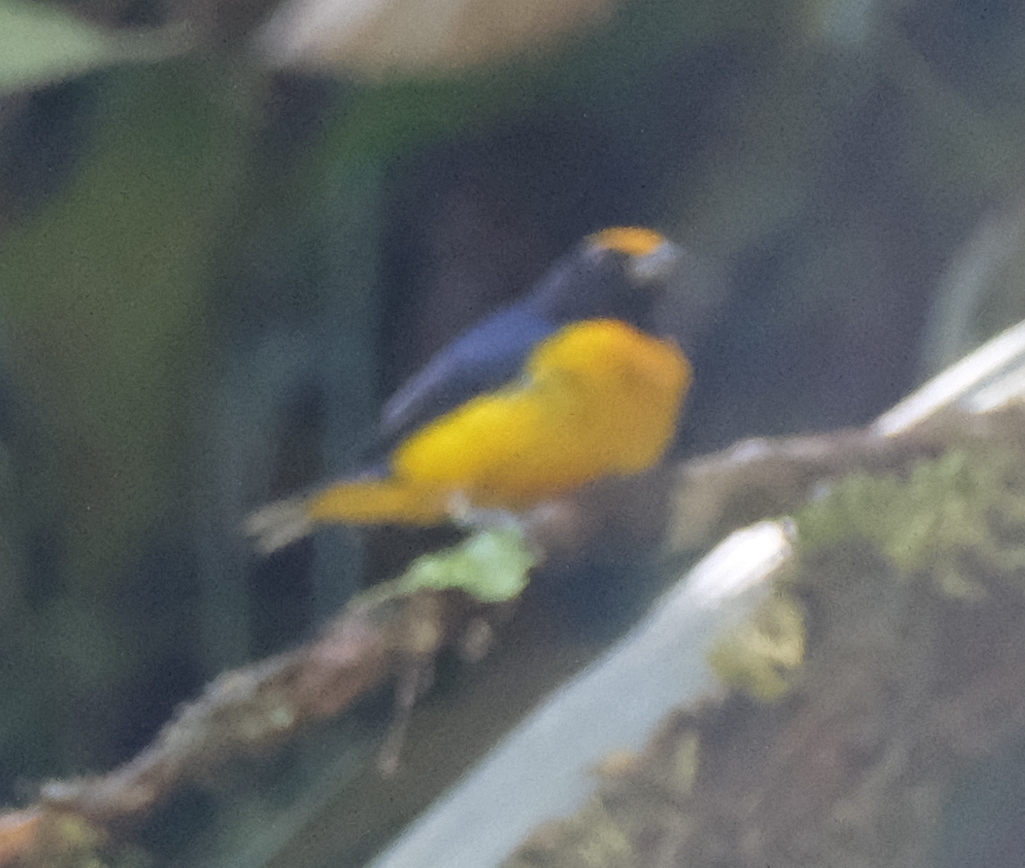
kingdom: Animalia
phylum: Chordata
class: Aves
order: Passeriformes
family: Fringillidae
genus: Euphonia
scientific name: Euphonia xanthogaster
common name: Orange-bellied euphonia
